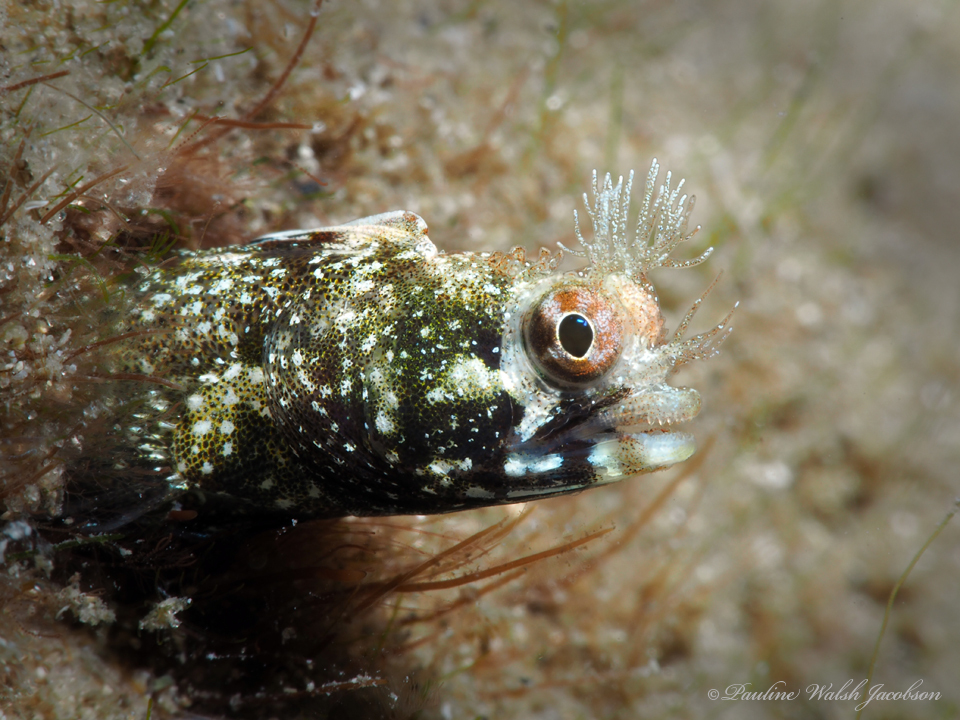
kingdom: Animalia
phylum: Chordata
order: Perciformes
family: Chaenopsidae
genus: Acanthemblemaria
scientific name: Acanthemblemaria aspera
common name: Roughhead blenny
